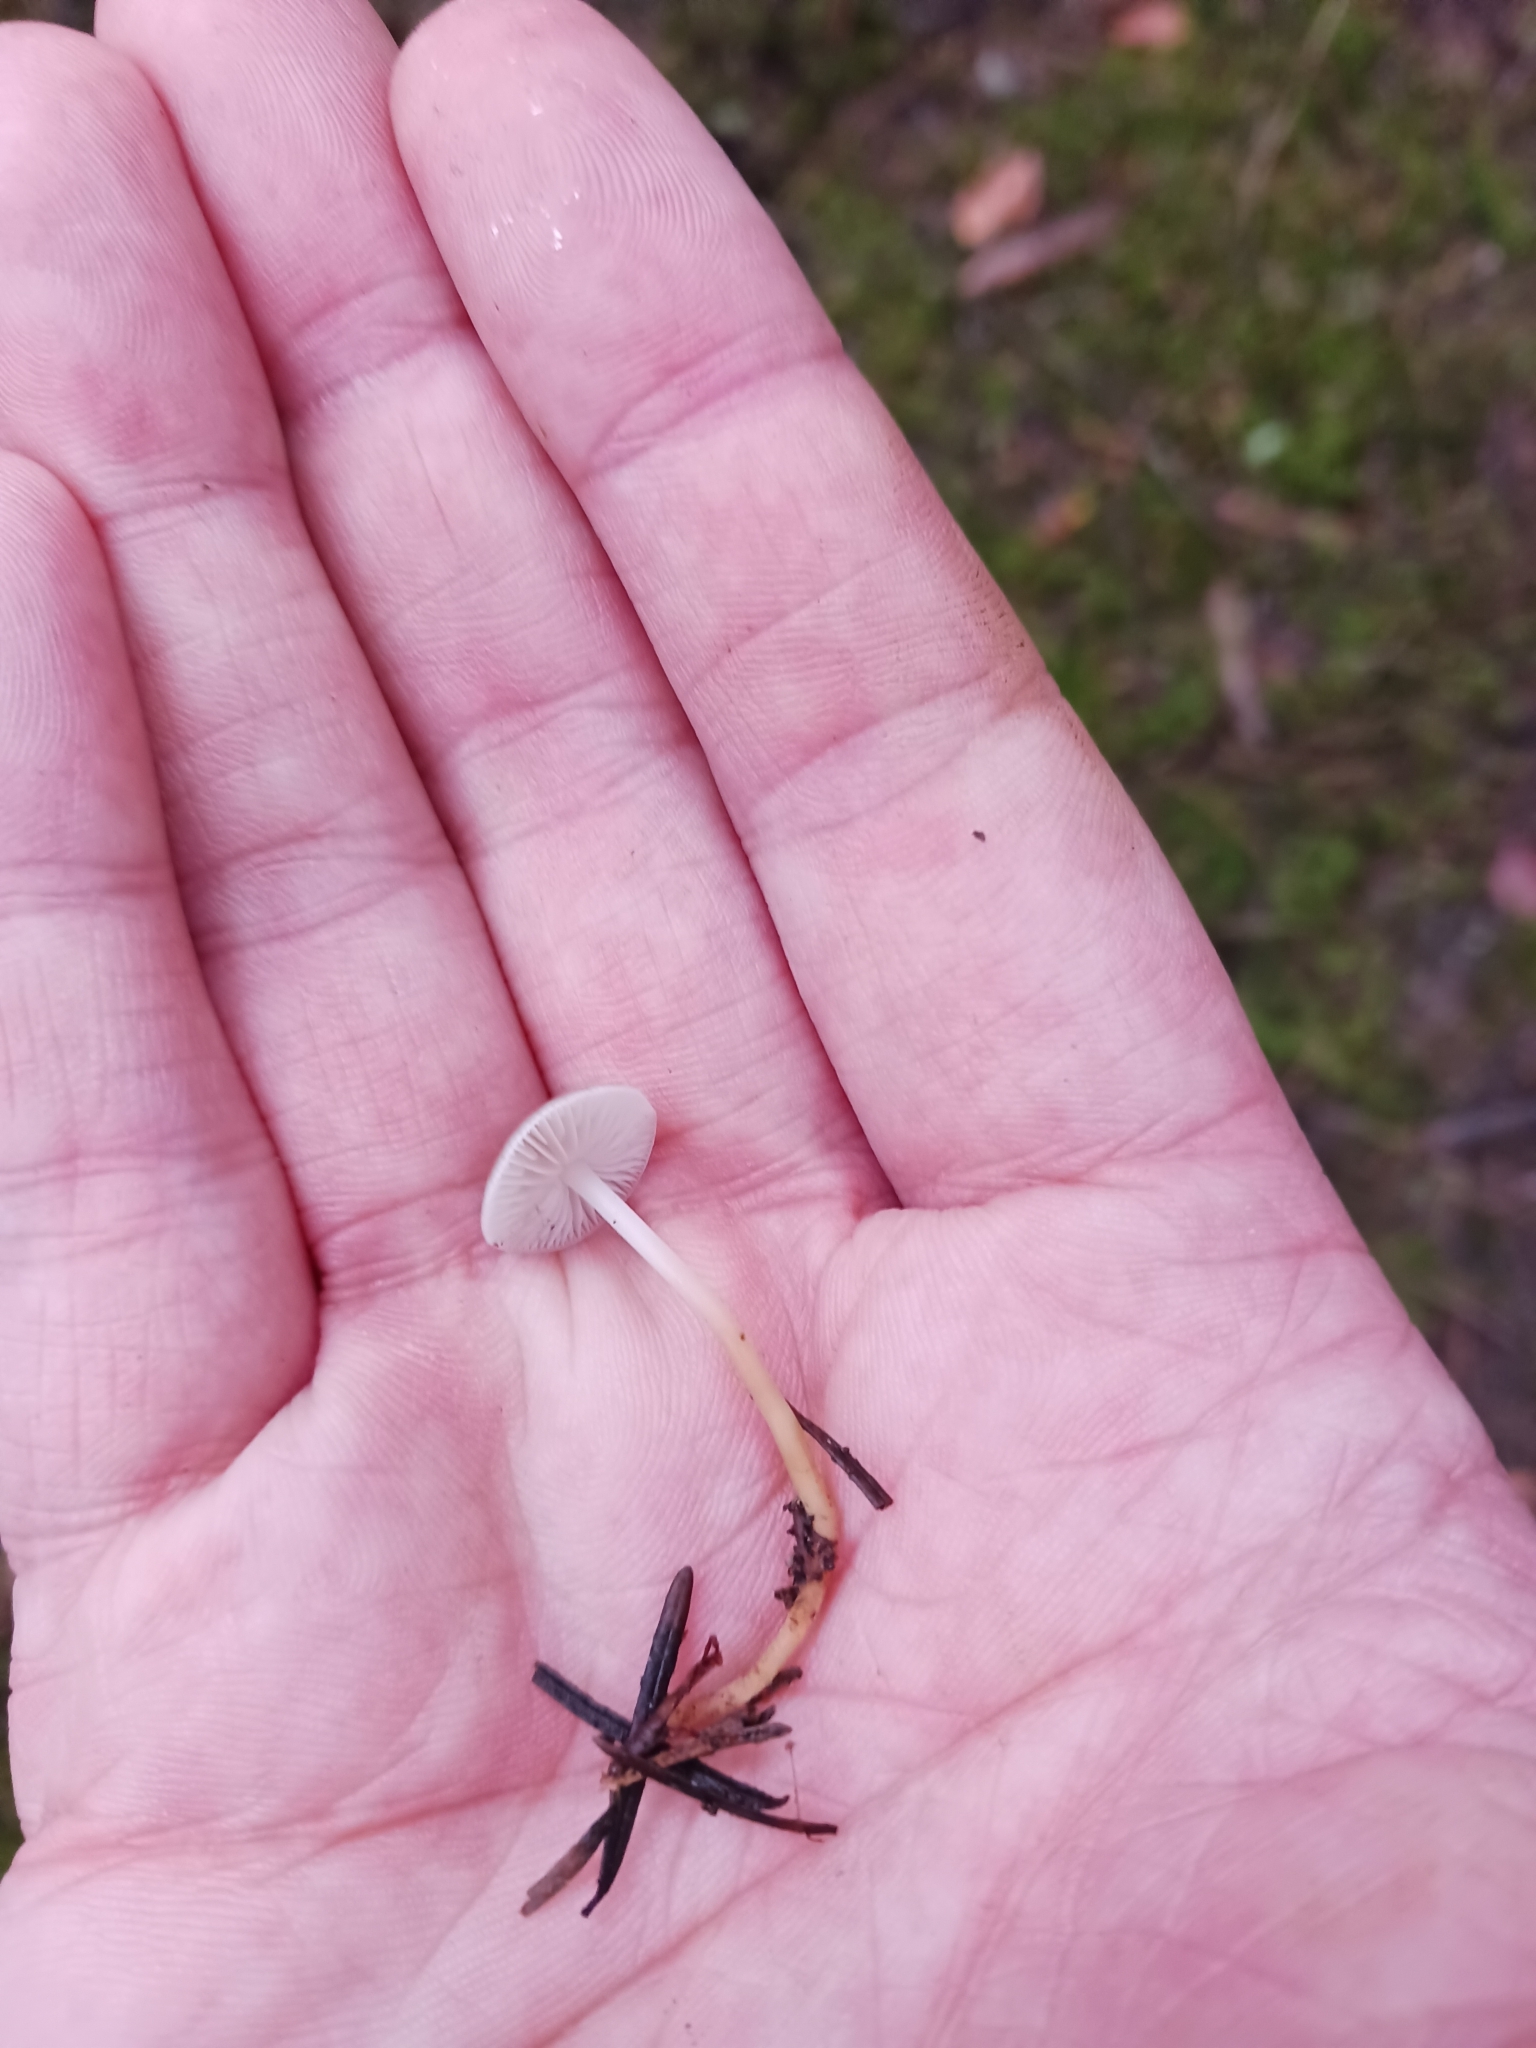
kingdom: Fungi
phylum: Basidiomycota
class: Agaricomycetes
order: Agaricales
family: Physalacriaceae
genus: Strobilurus
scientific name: Strobilurus conigenus
